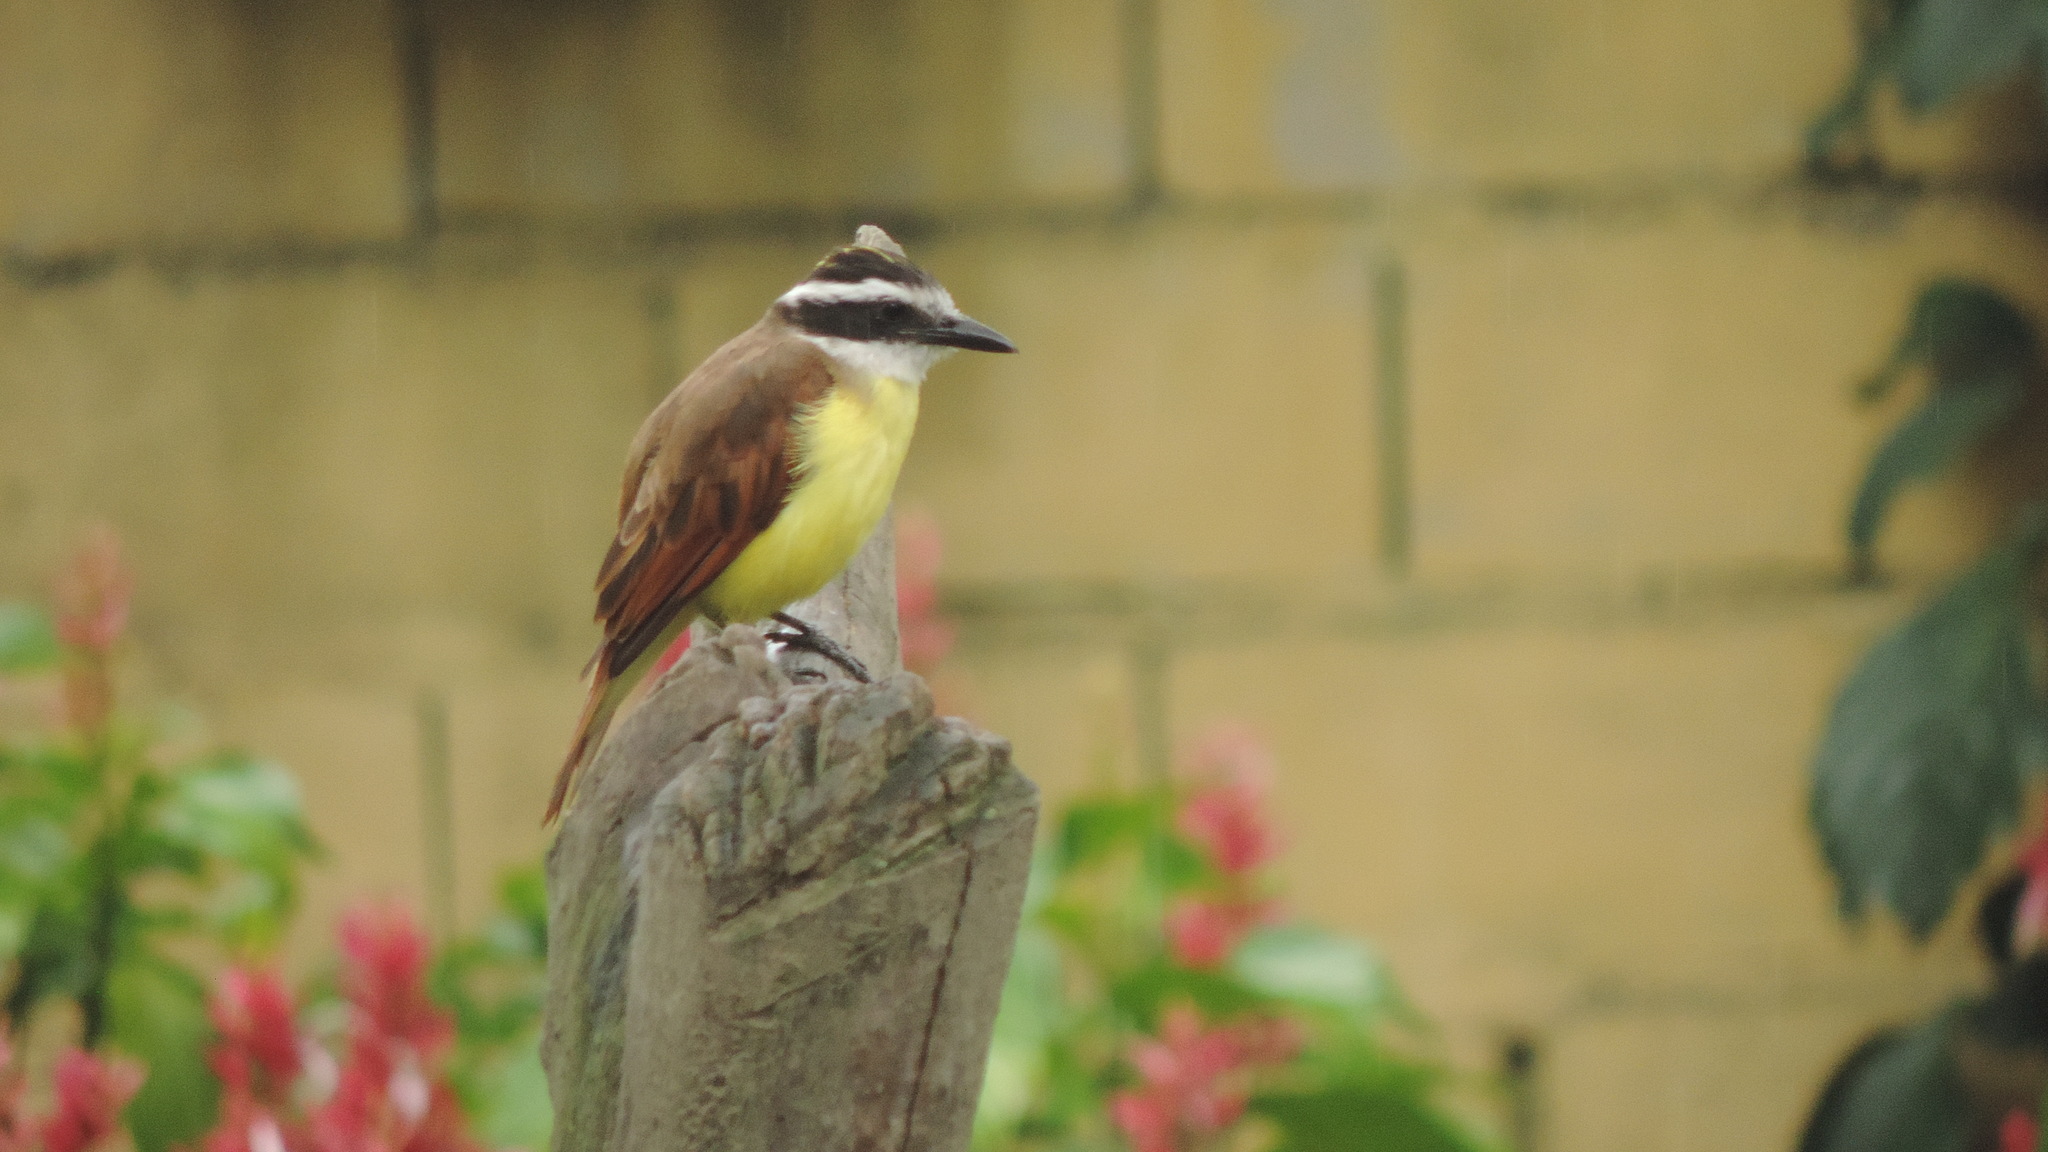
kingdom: Animalia
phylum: Chordata
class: Aves
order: Passeriformes
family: Tyrannidae
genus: Pitangus
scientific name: Pitangus sulphuratus
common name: Great kiskadee
